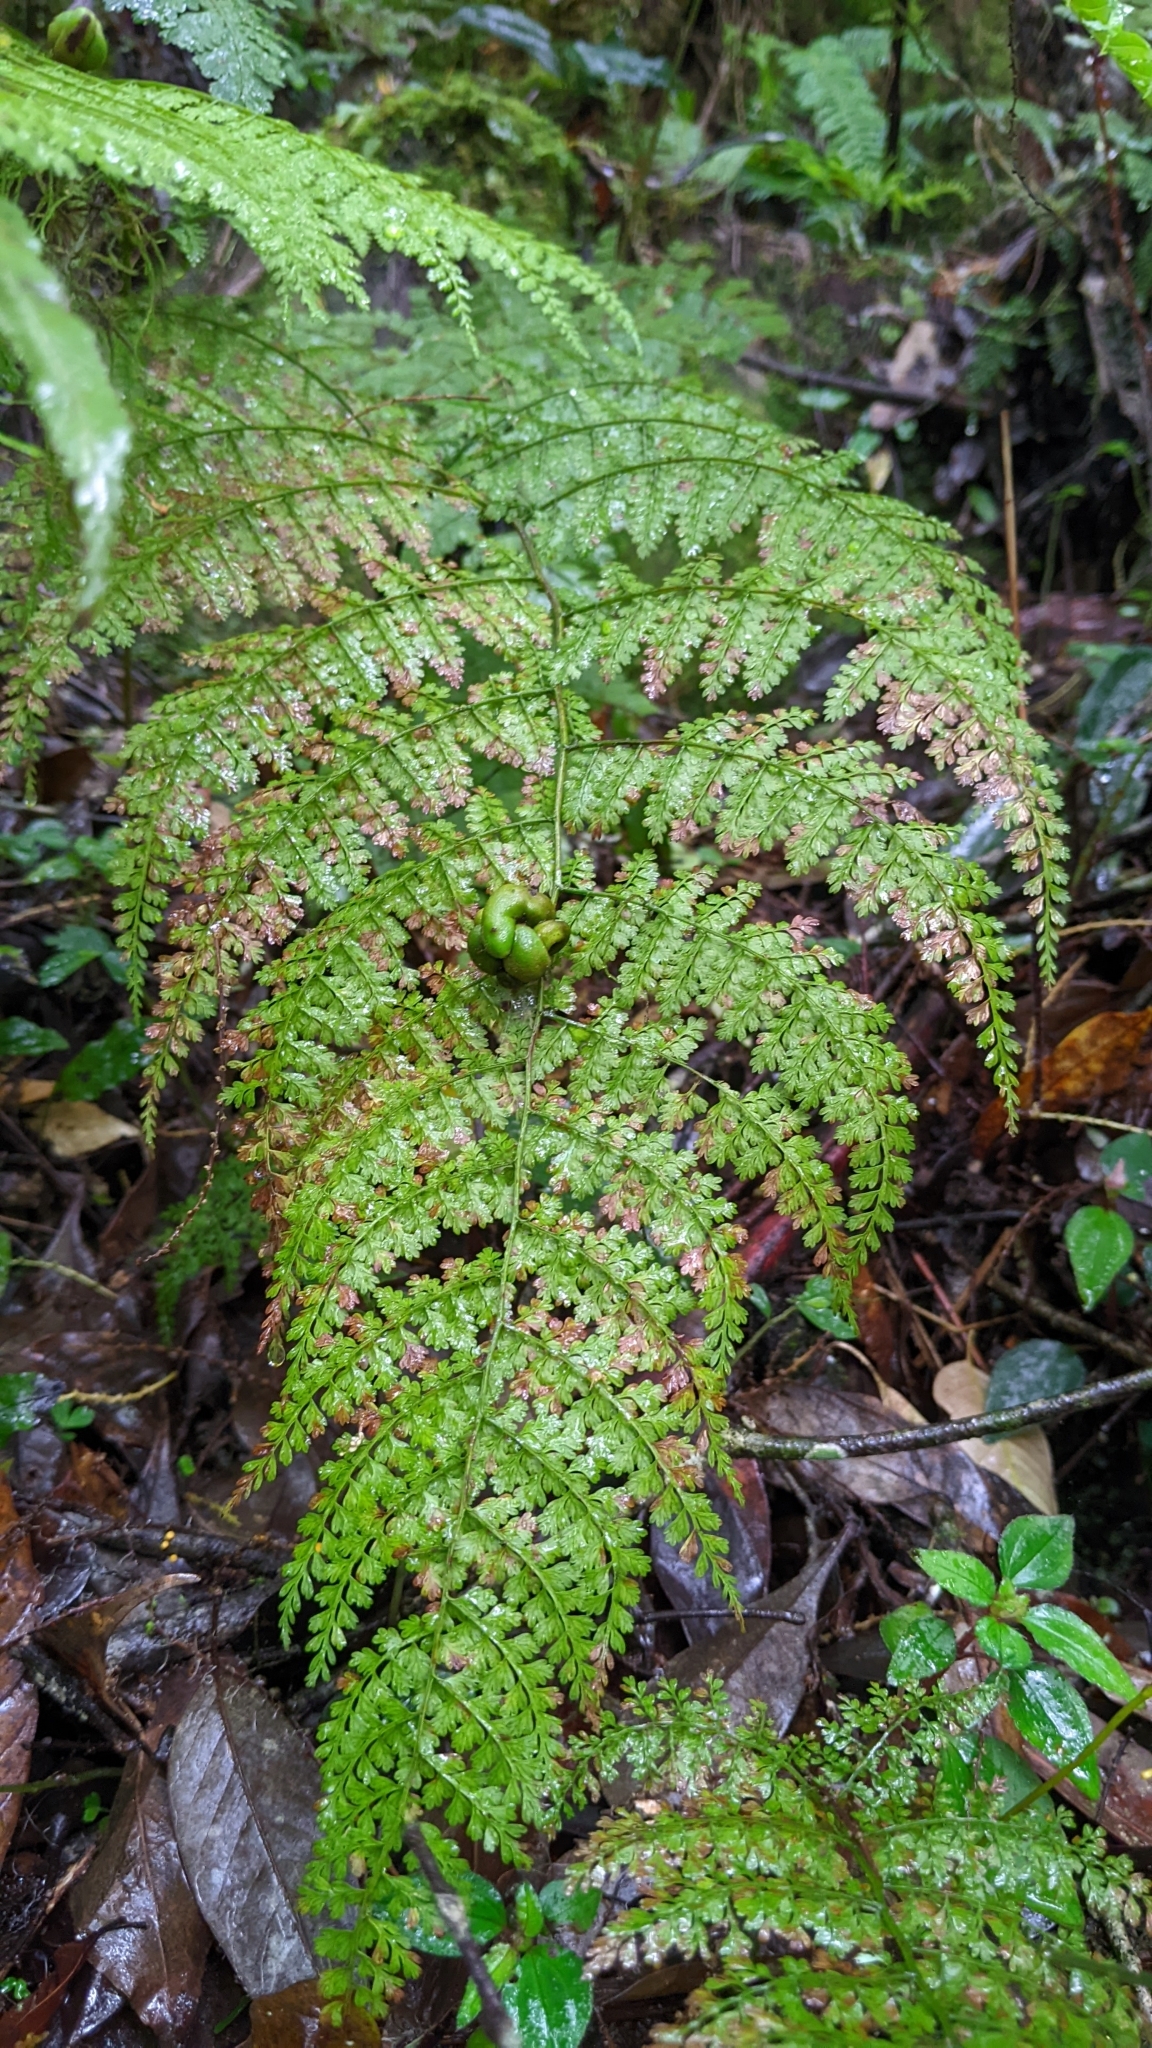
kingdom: Plantae
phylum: Tracheophyta
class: Polypodiopsida
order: Polypodiales
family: Dennstaedtiaceae
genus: Monachosorum
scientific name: Monachosorum henryi
